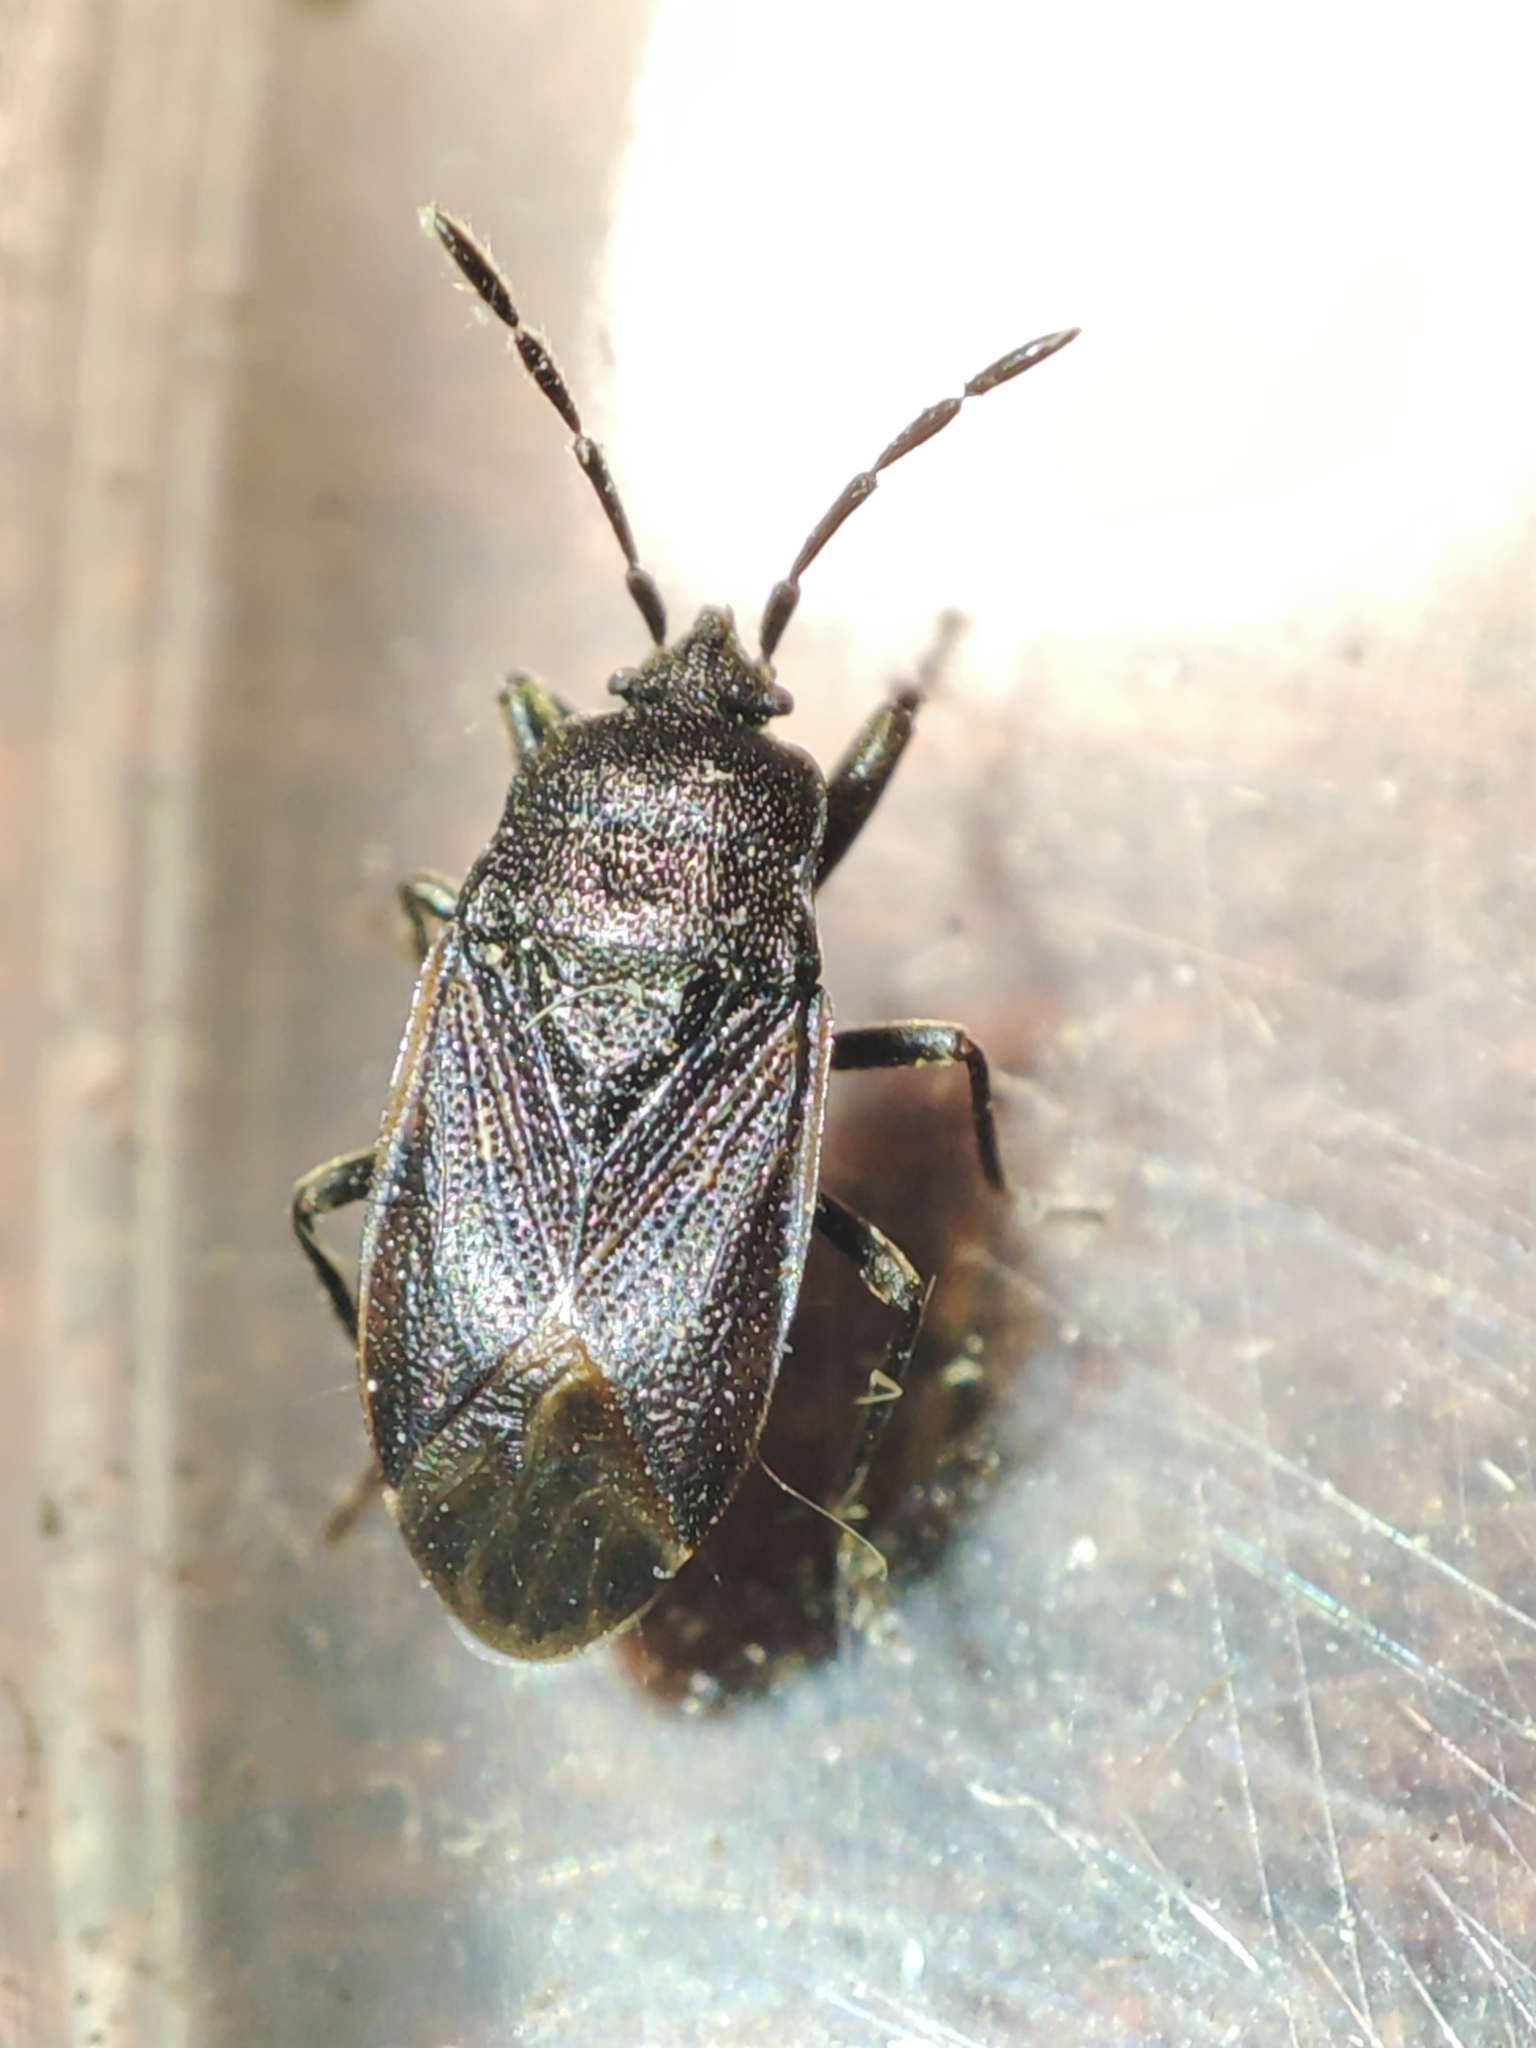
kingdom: Animalia
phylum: Arthropoda
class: Insecta
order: Hemiptera
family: Rhyparochromidae
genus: Drymus
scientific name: Drymus ryeii
